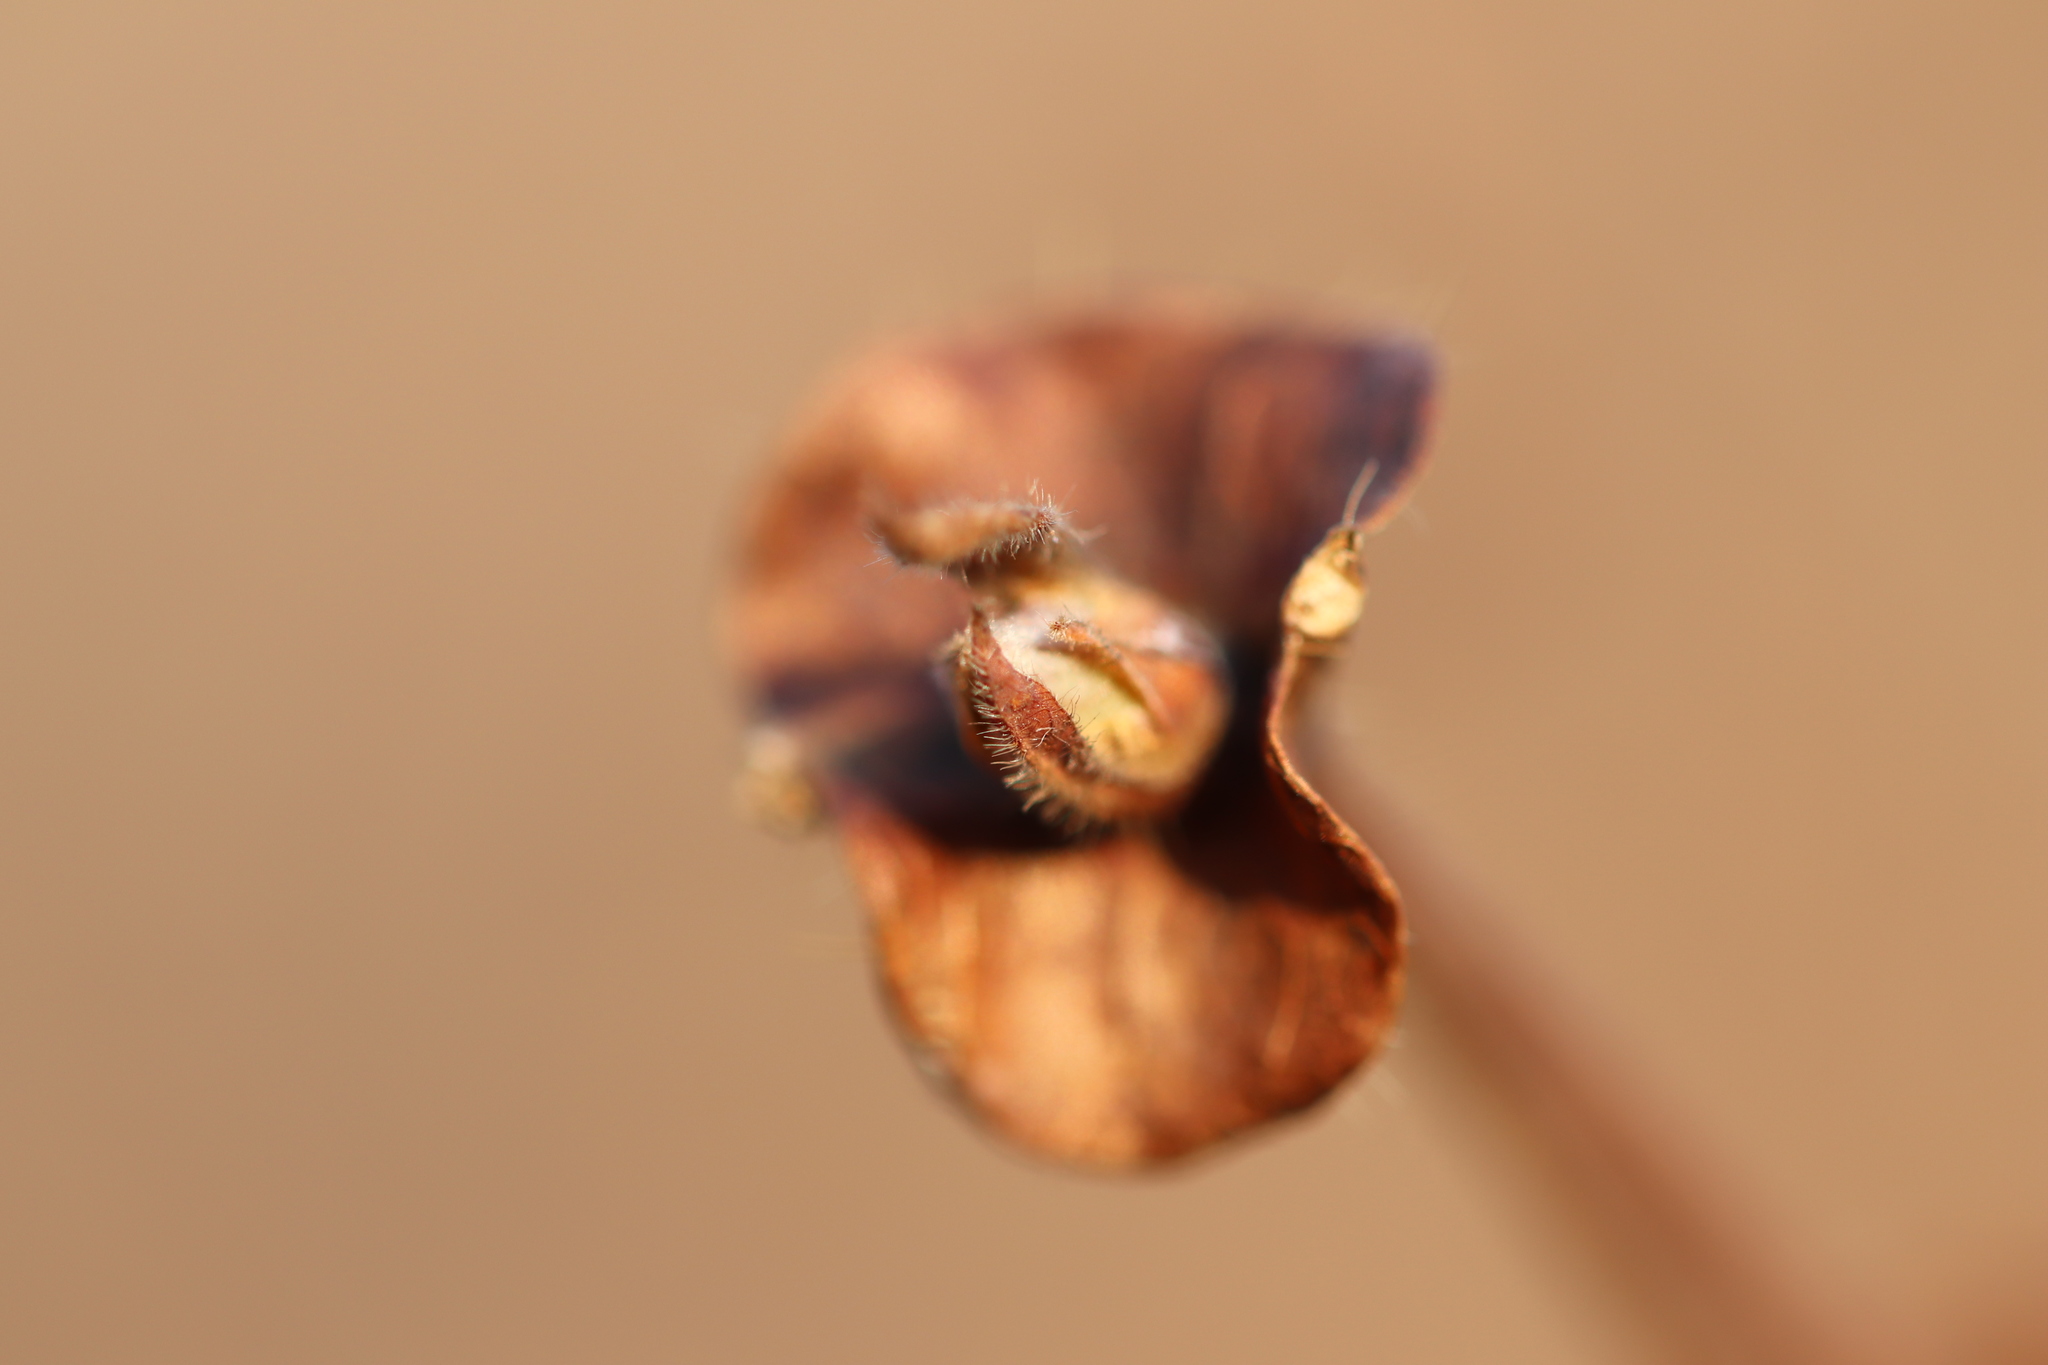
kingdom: Plantae
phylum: Tracheophyta
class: Magnoliopsida
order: Dipsacales
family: Caprifoliaceae
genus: Lonicera
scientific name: Lonicera caerulea
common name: Blue honeysuckle
